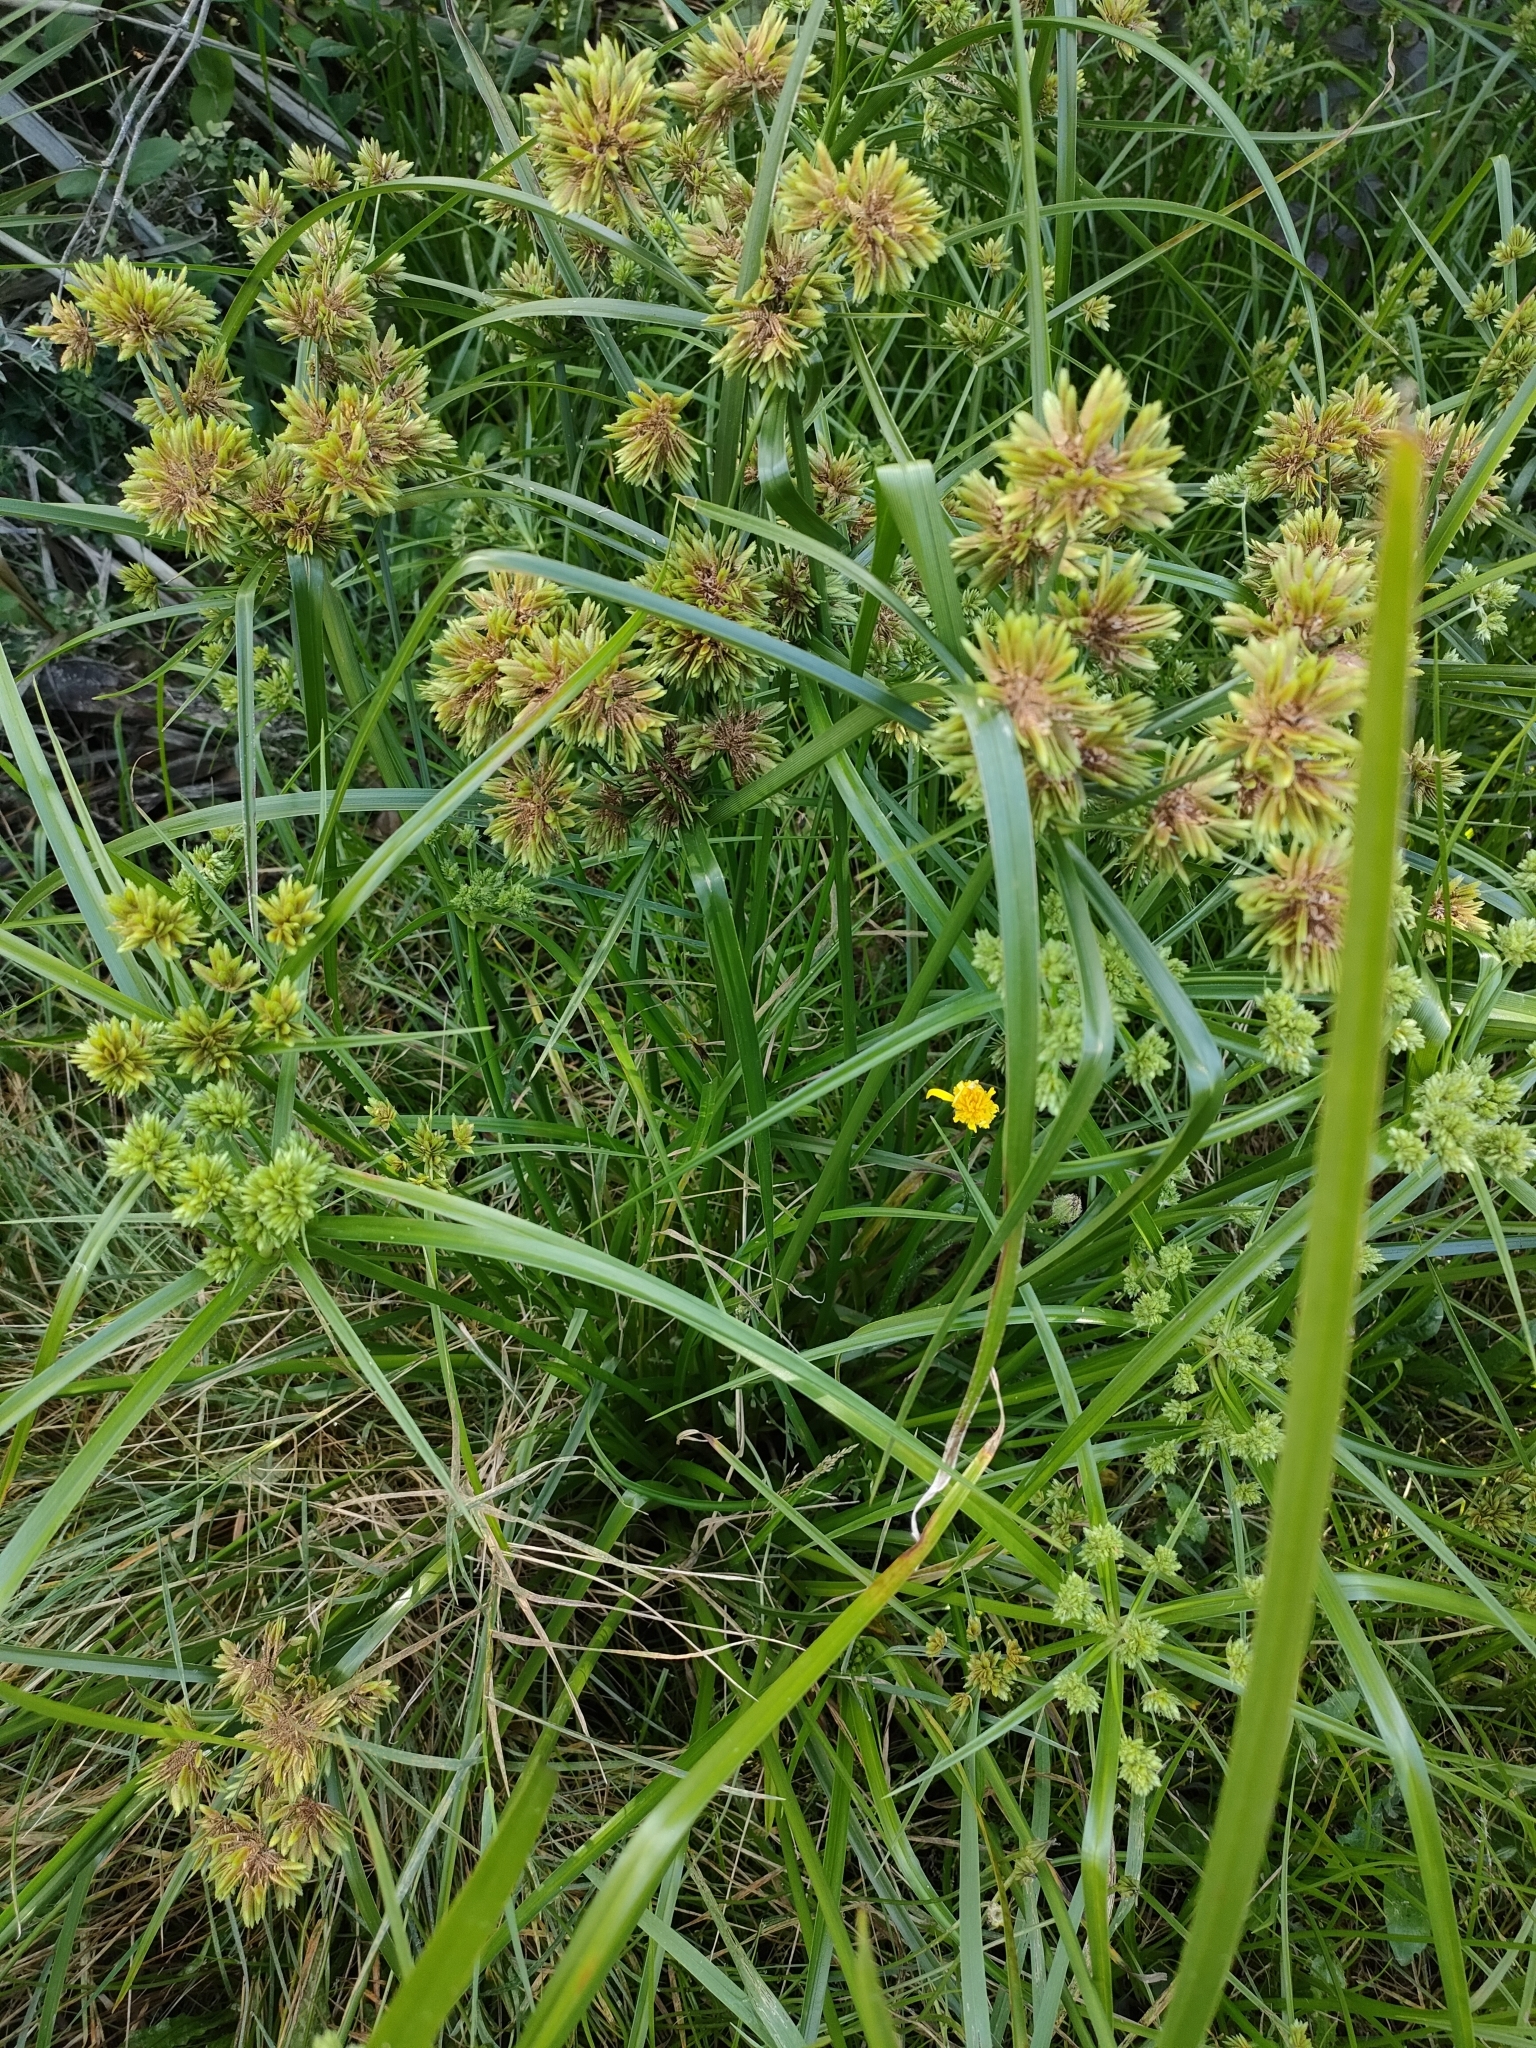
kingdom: Plantae
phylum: Tracheophyta
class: Liliopsida
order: Poales
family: Cyperaceae
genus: Cyperus
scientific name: Cyperus eragrostis
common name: Tall flatsedge
